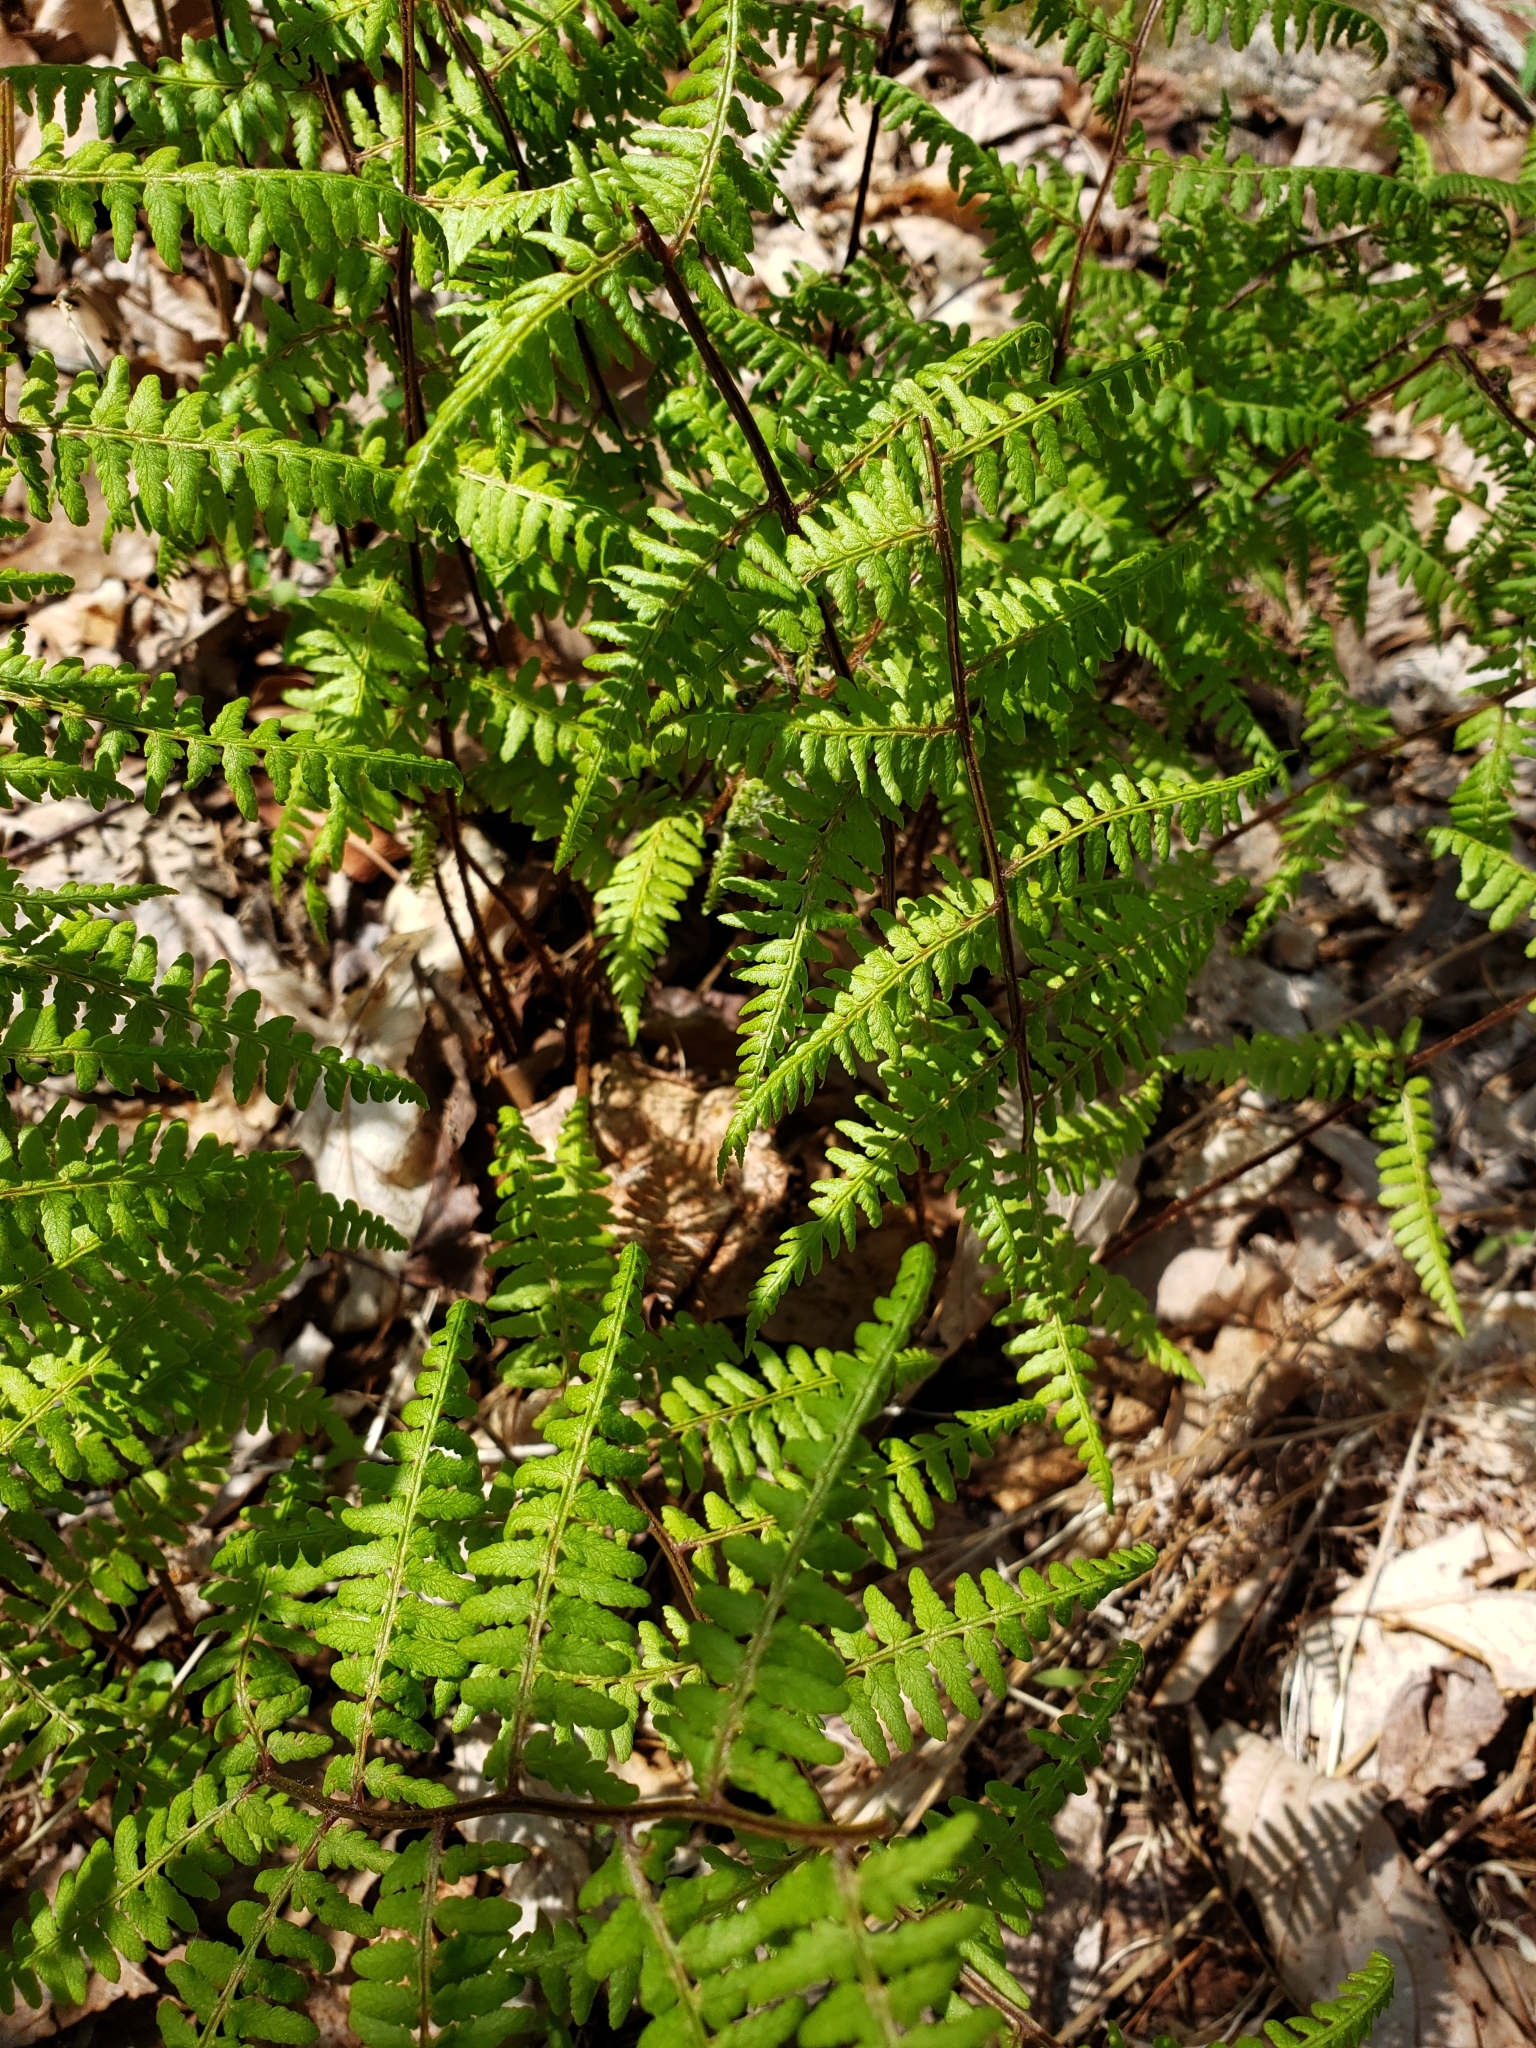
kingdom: Plantae
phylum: Tracheophyta
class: Polypodiopsida
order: Polypodiales
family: Athyriaceae
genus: Athyrium
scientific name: Athyrium asplenioides
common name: Southern lady fern
